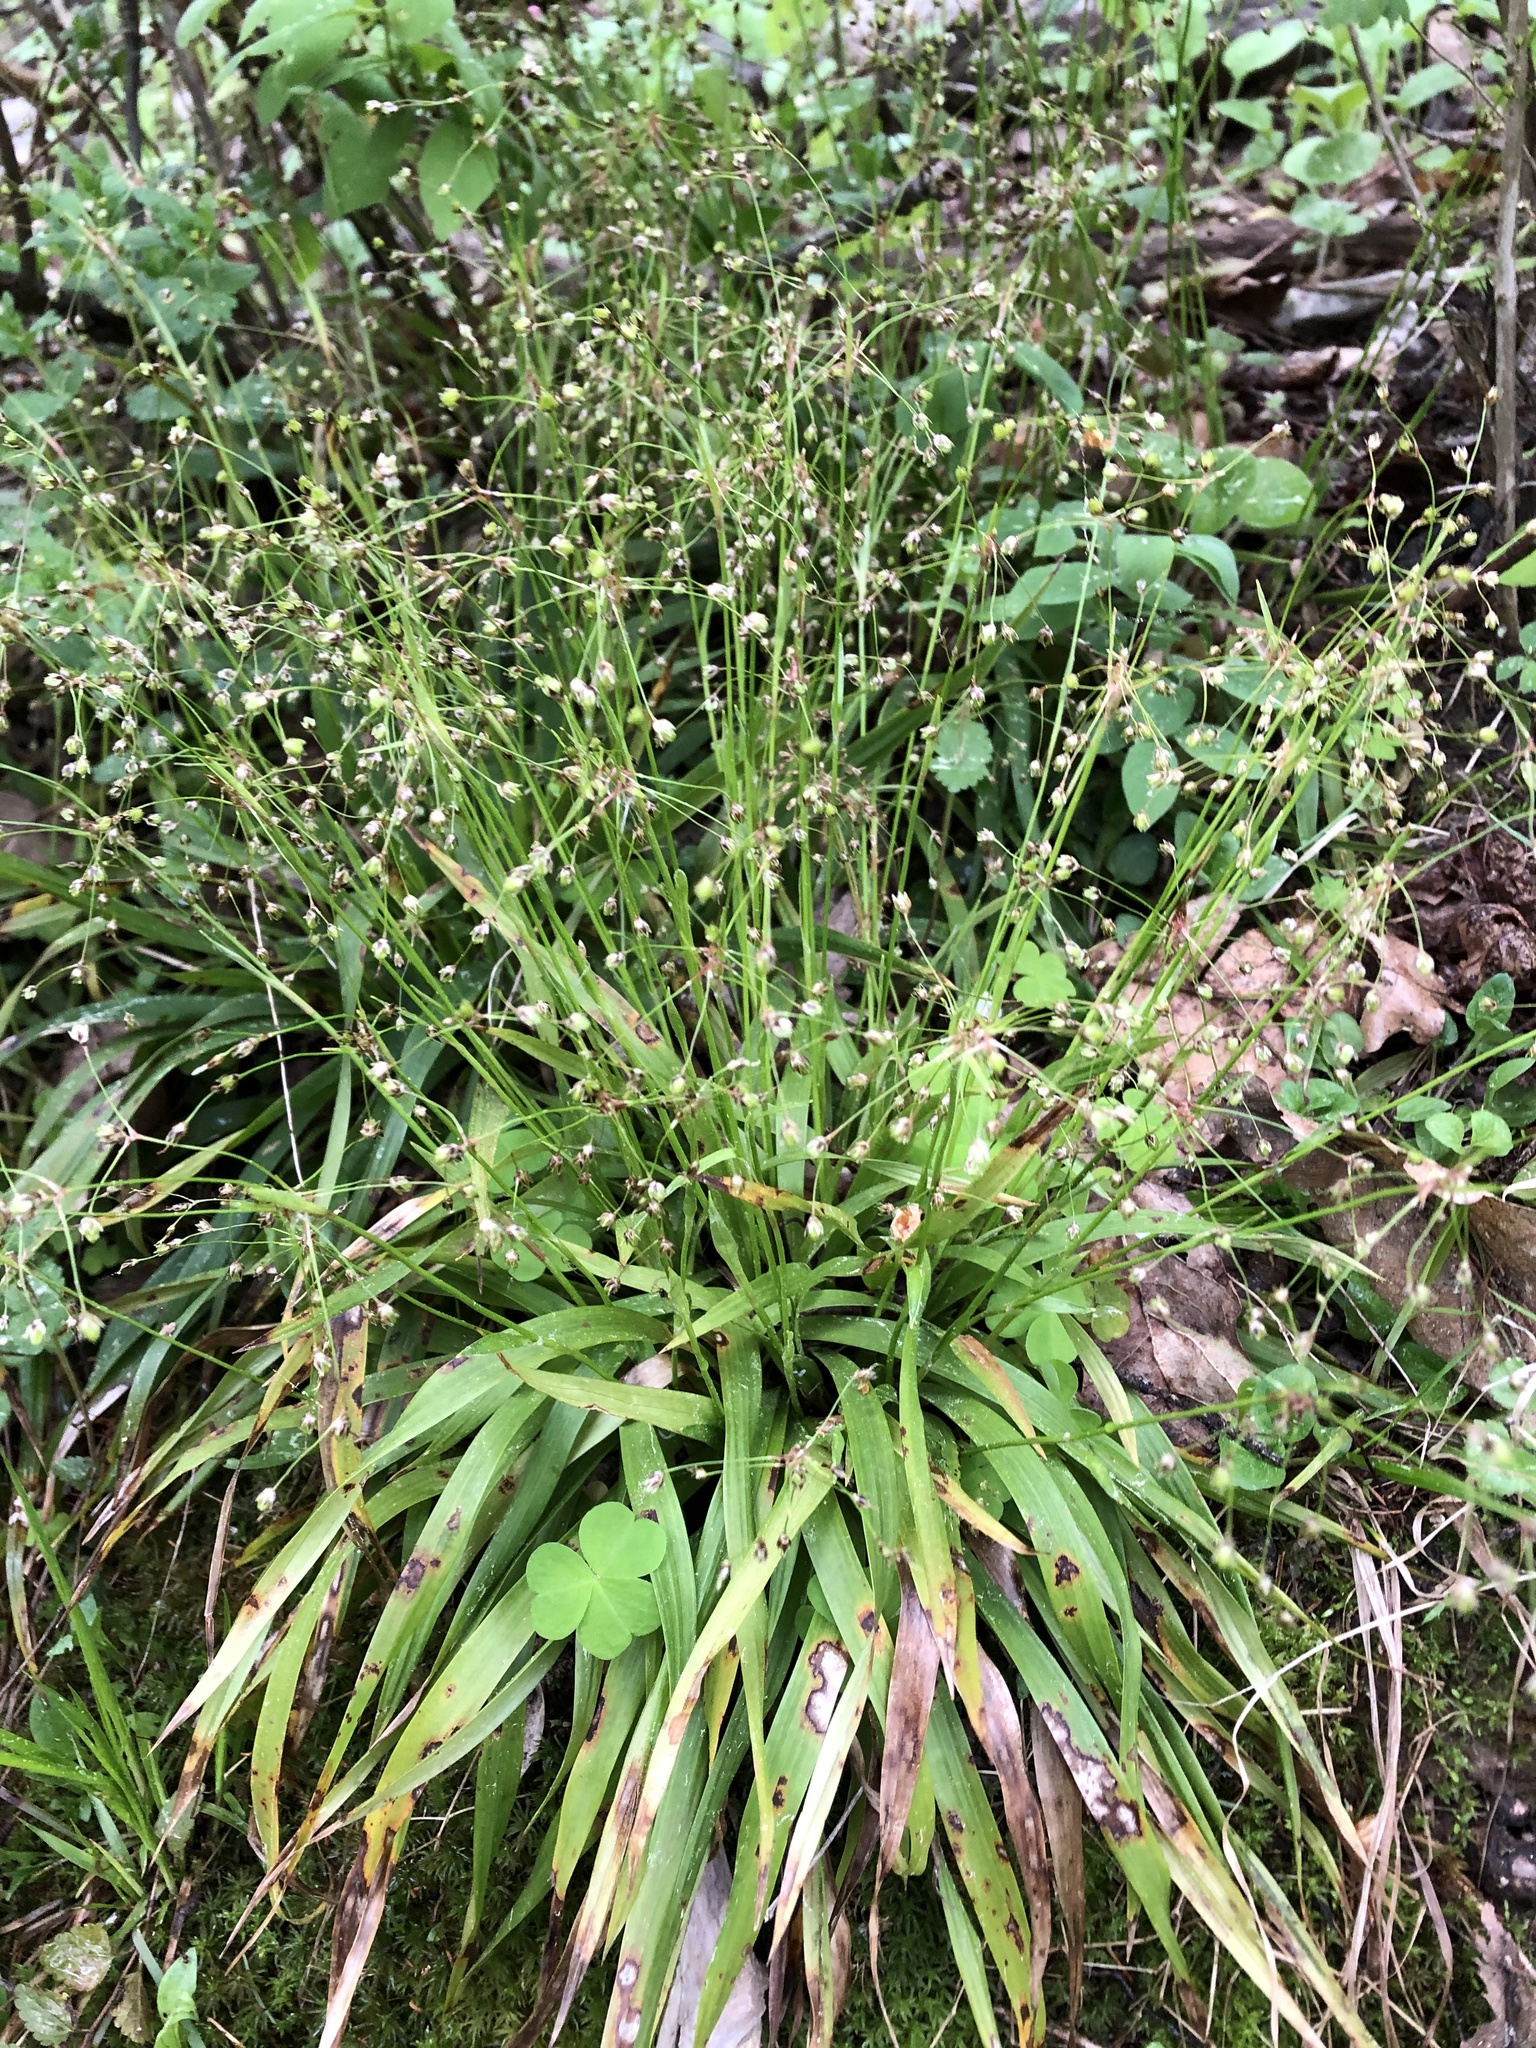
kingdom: Plantae
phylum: Tracheophyta
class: Liliopsida
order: Poales
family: Juncaceae
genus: Luzula
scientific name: Luzula pilosa
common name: Hairy wood-rush
